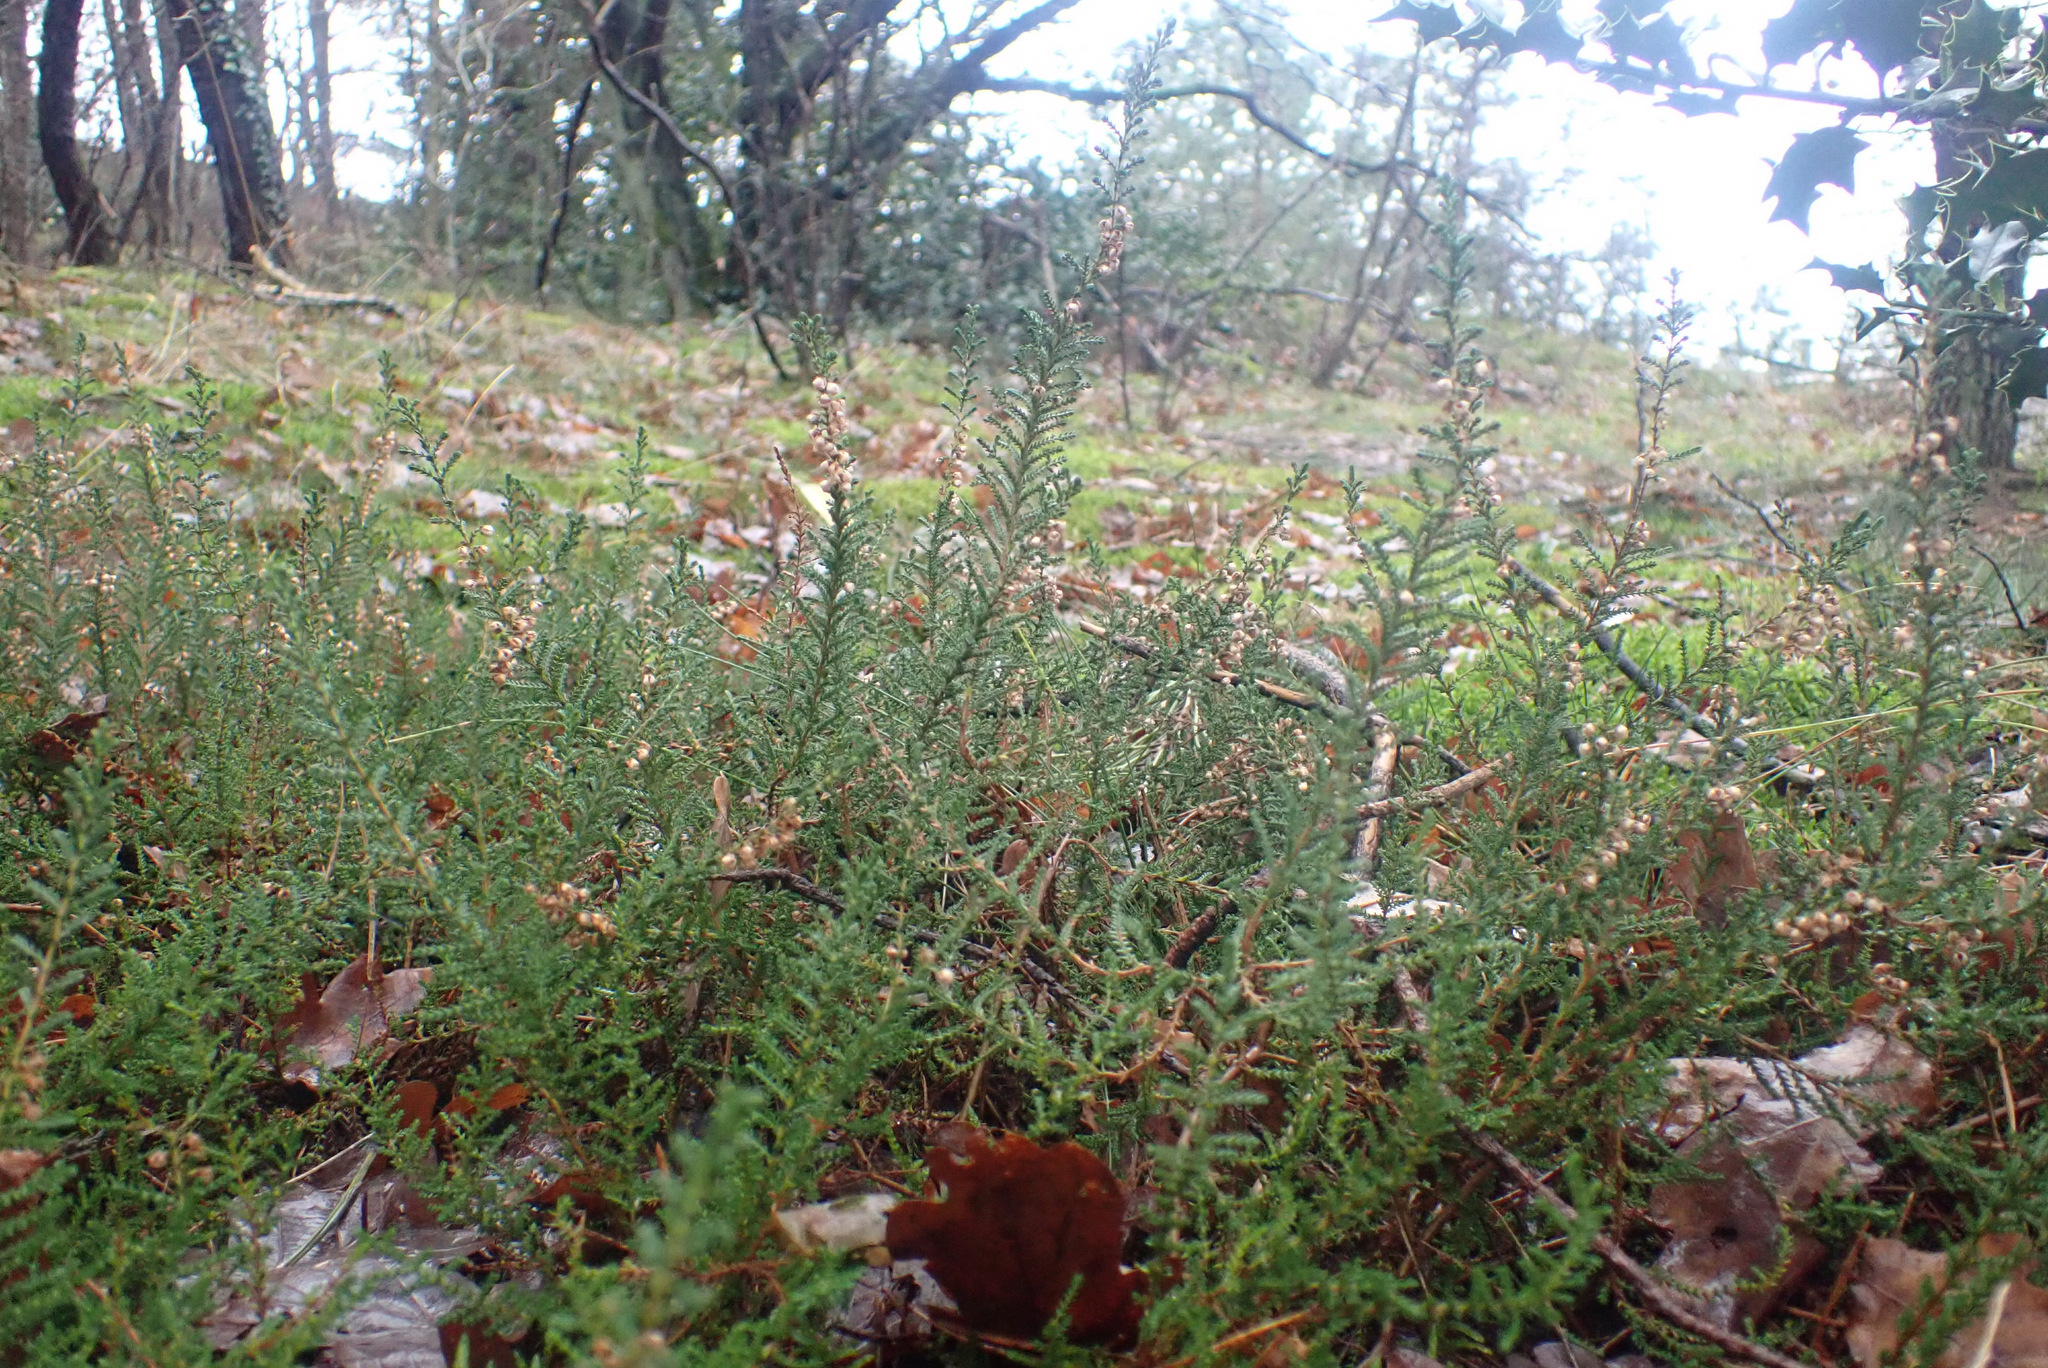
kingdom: Plantae
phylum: Tracheophyta
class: Magnoliopsida
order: Ericales
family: Ericaceae
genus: Calluna
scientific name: Calluna vulgaris
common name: Heather
